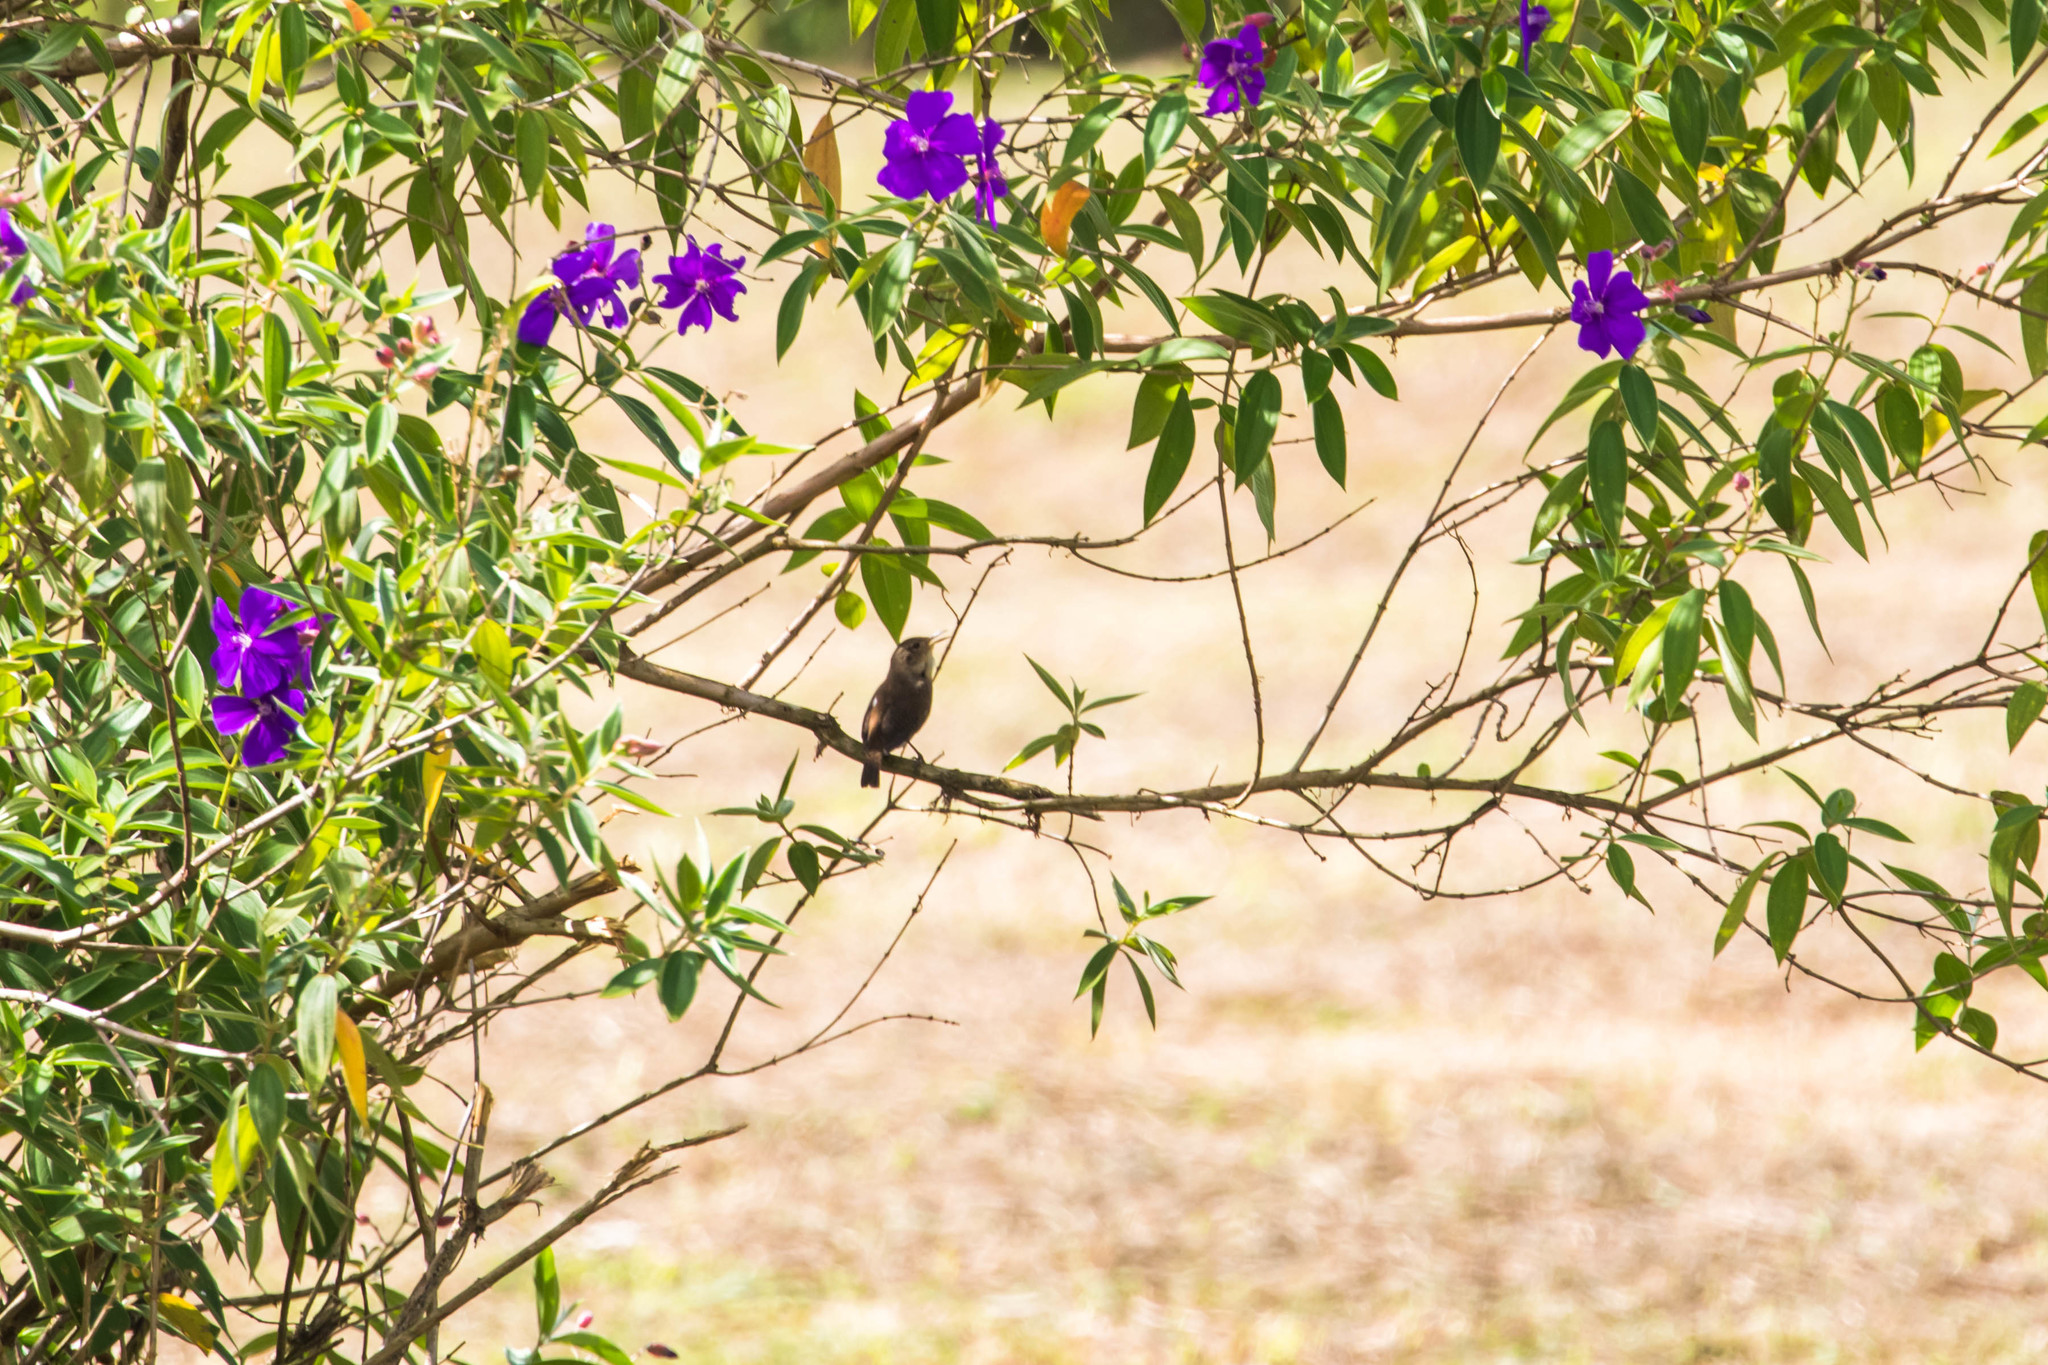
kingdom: Animalia
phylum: Chordata
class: Aves
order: Passeriformes
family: Troglodytidae
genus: Troglodytes
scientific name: Troglodytes aedon
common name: House wren
